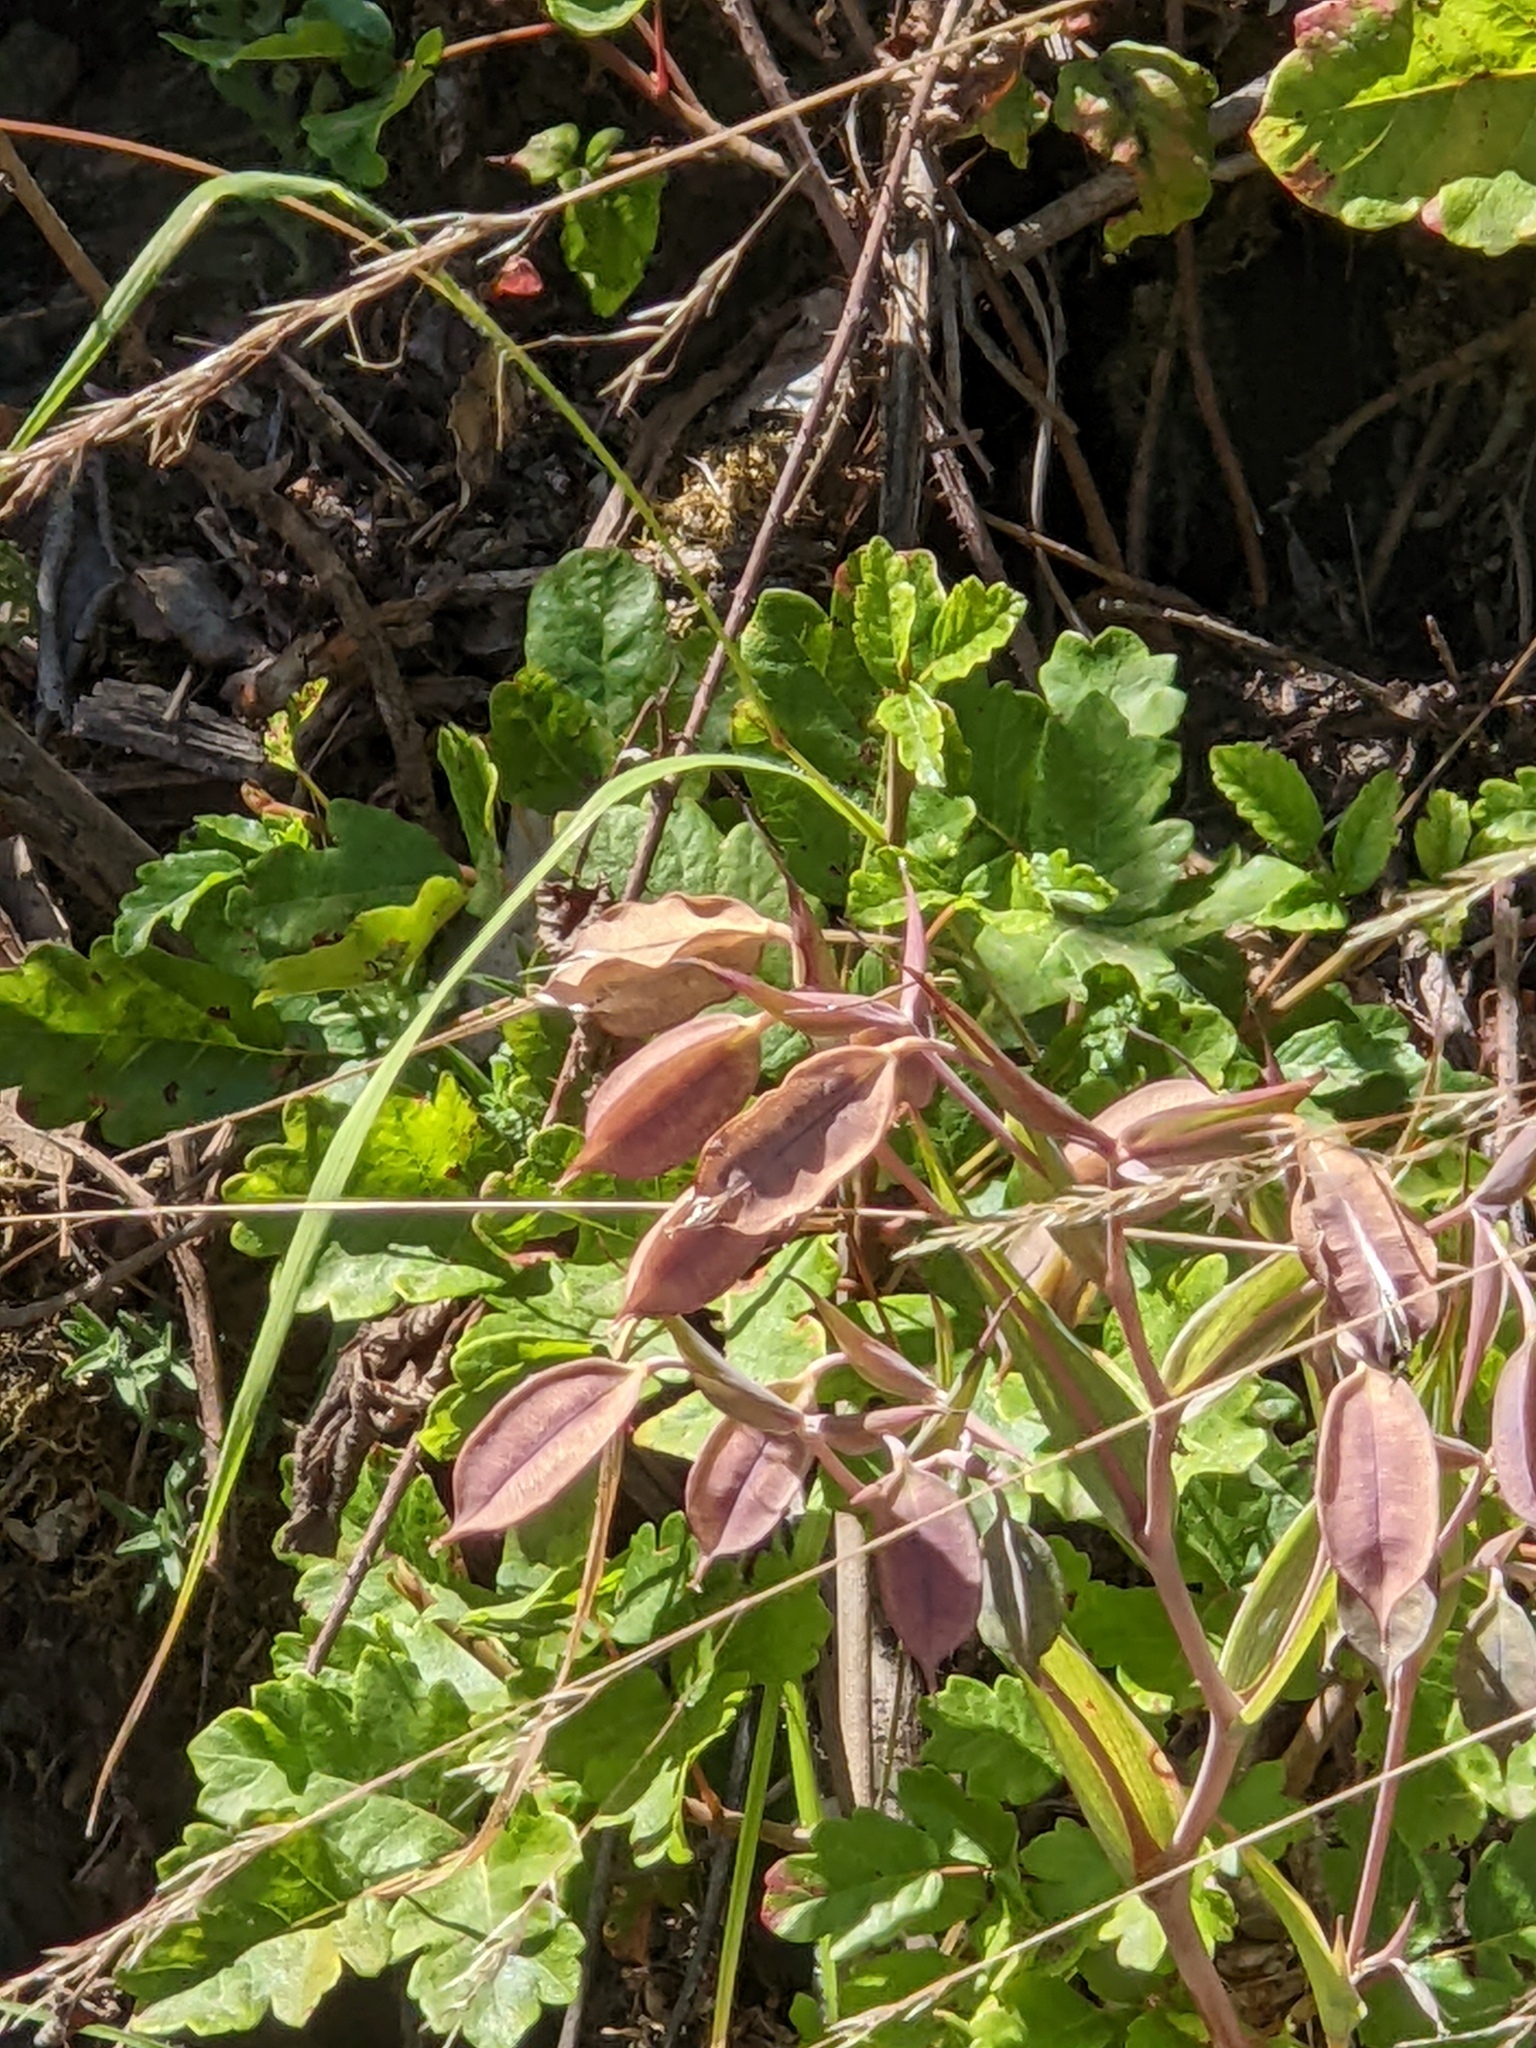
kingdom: Plantae
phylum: Tracheophyta
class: Liliopsida
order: Liliales
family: Liliaceae
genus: Calochortus
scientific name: Calochortus albus
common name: Fairy-lantern
